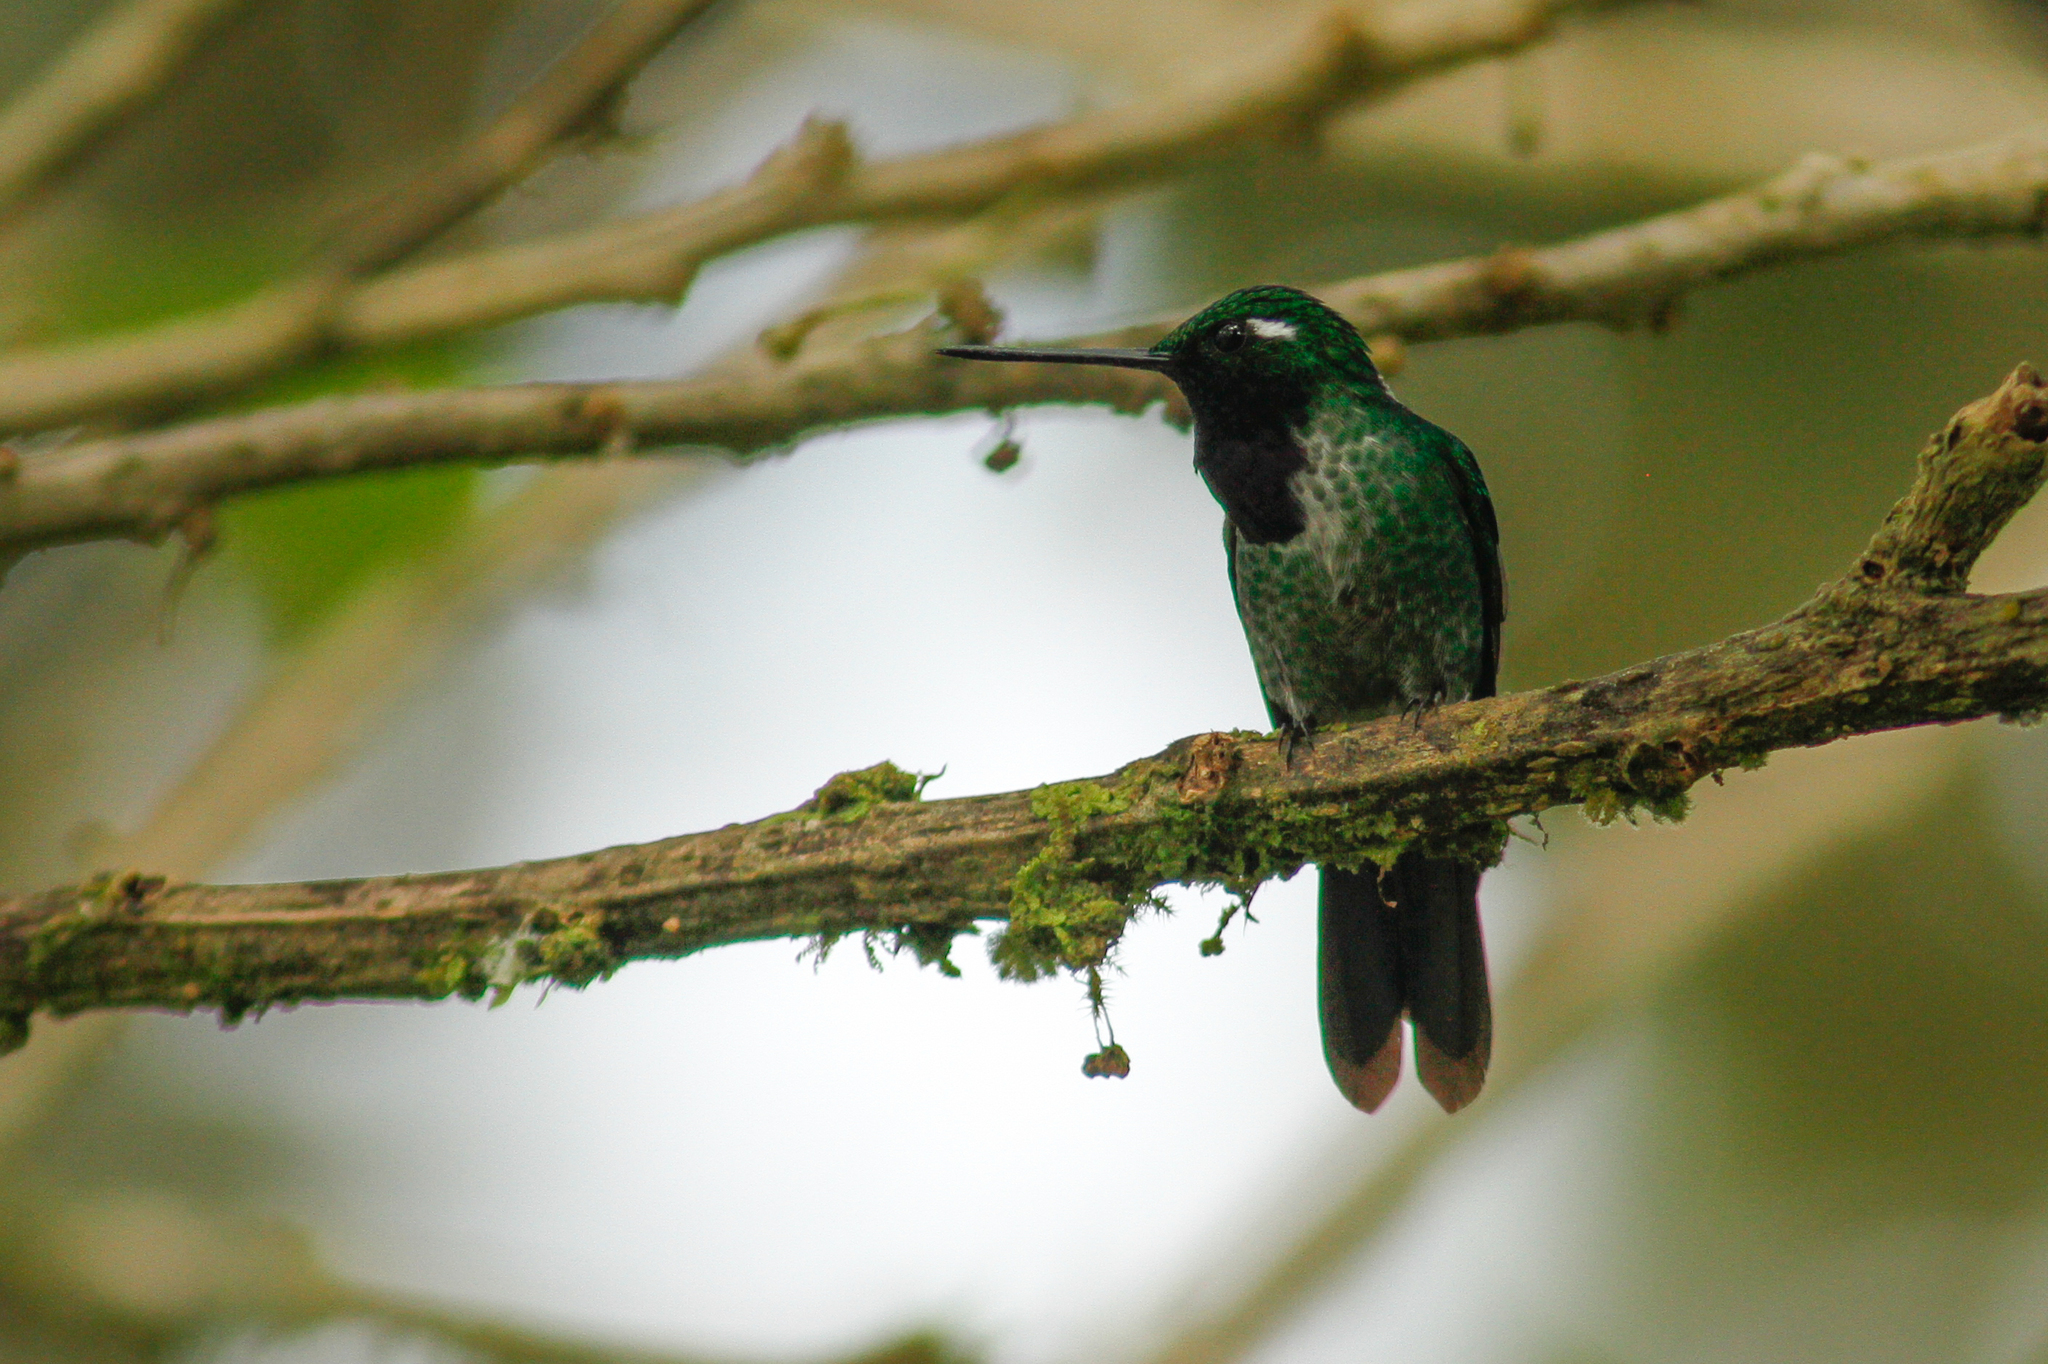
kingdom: Animalia
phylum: Chordata
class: Aves
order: Apodiformes
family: Trochilidae
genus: Urosticte
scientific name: Urosticte benjamini
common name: Purple-bibbed whitetip
